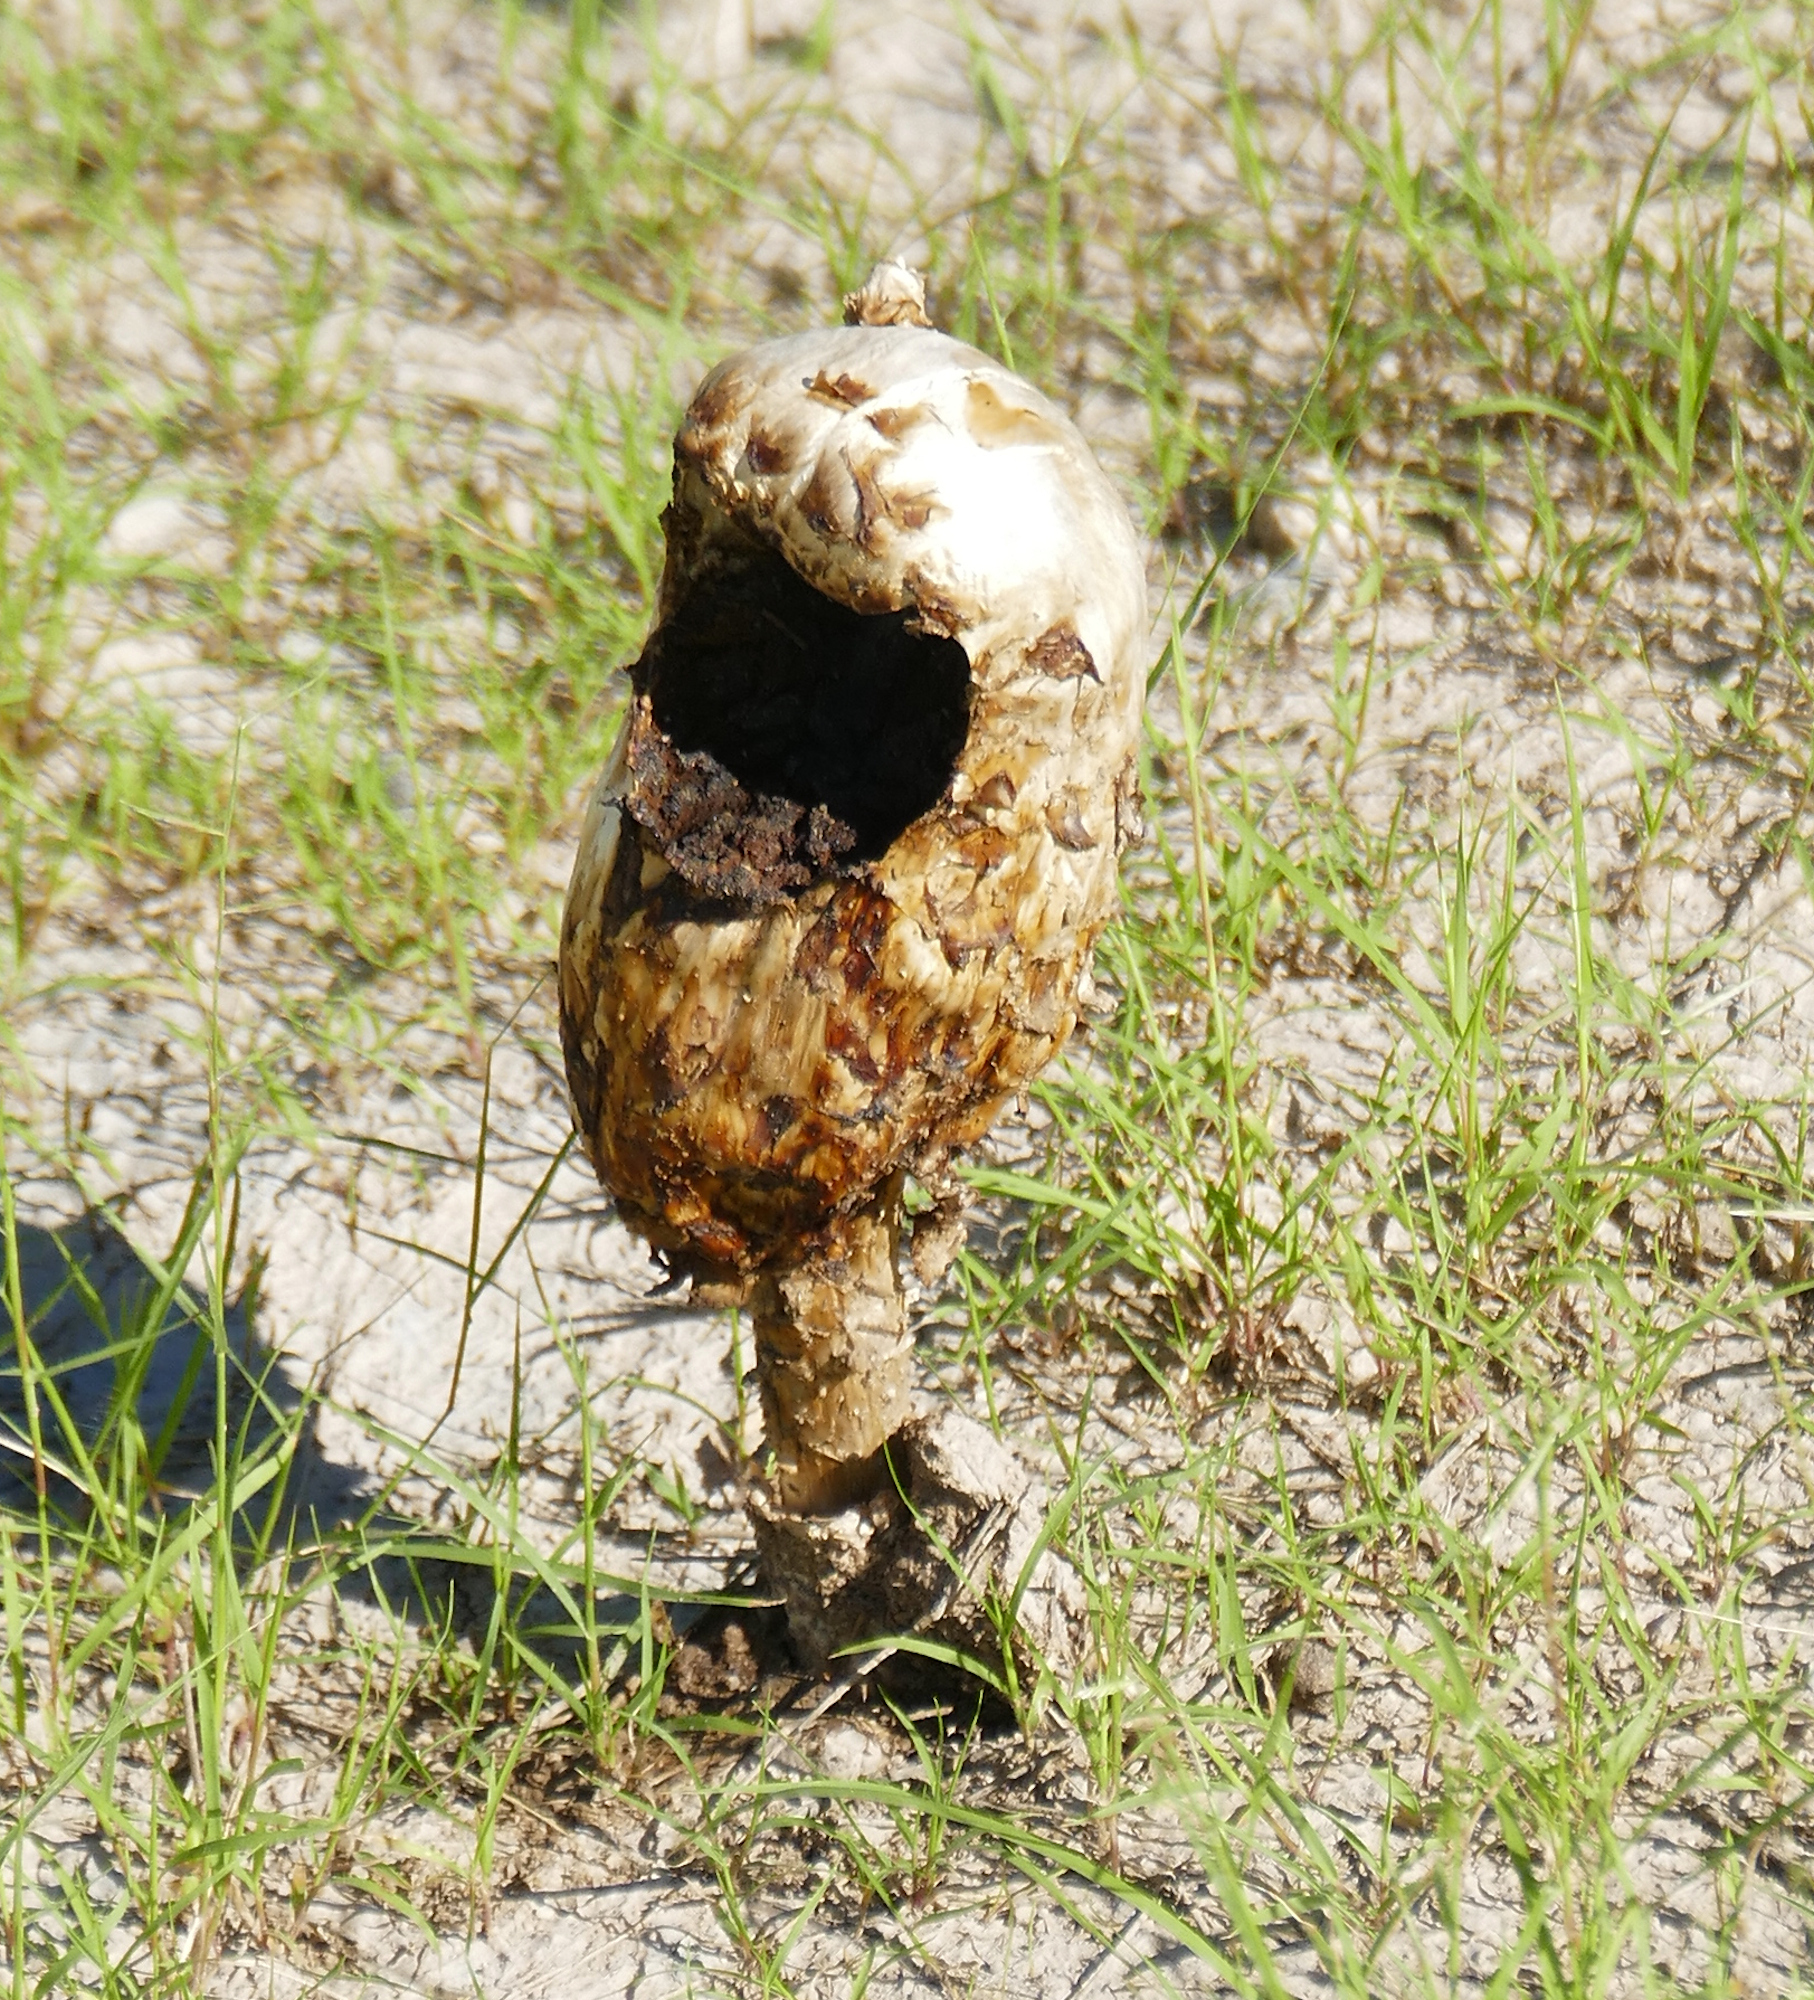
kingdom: Fungi
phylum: Basidiomycota
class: Agaricomycetes
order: Agaricales
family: Agaricaceae
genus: Podaxis
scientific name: Podaxis pistillaris
